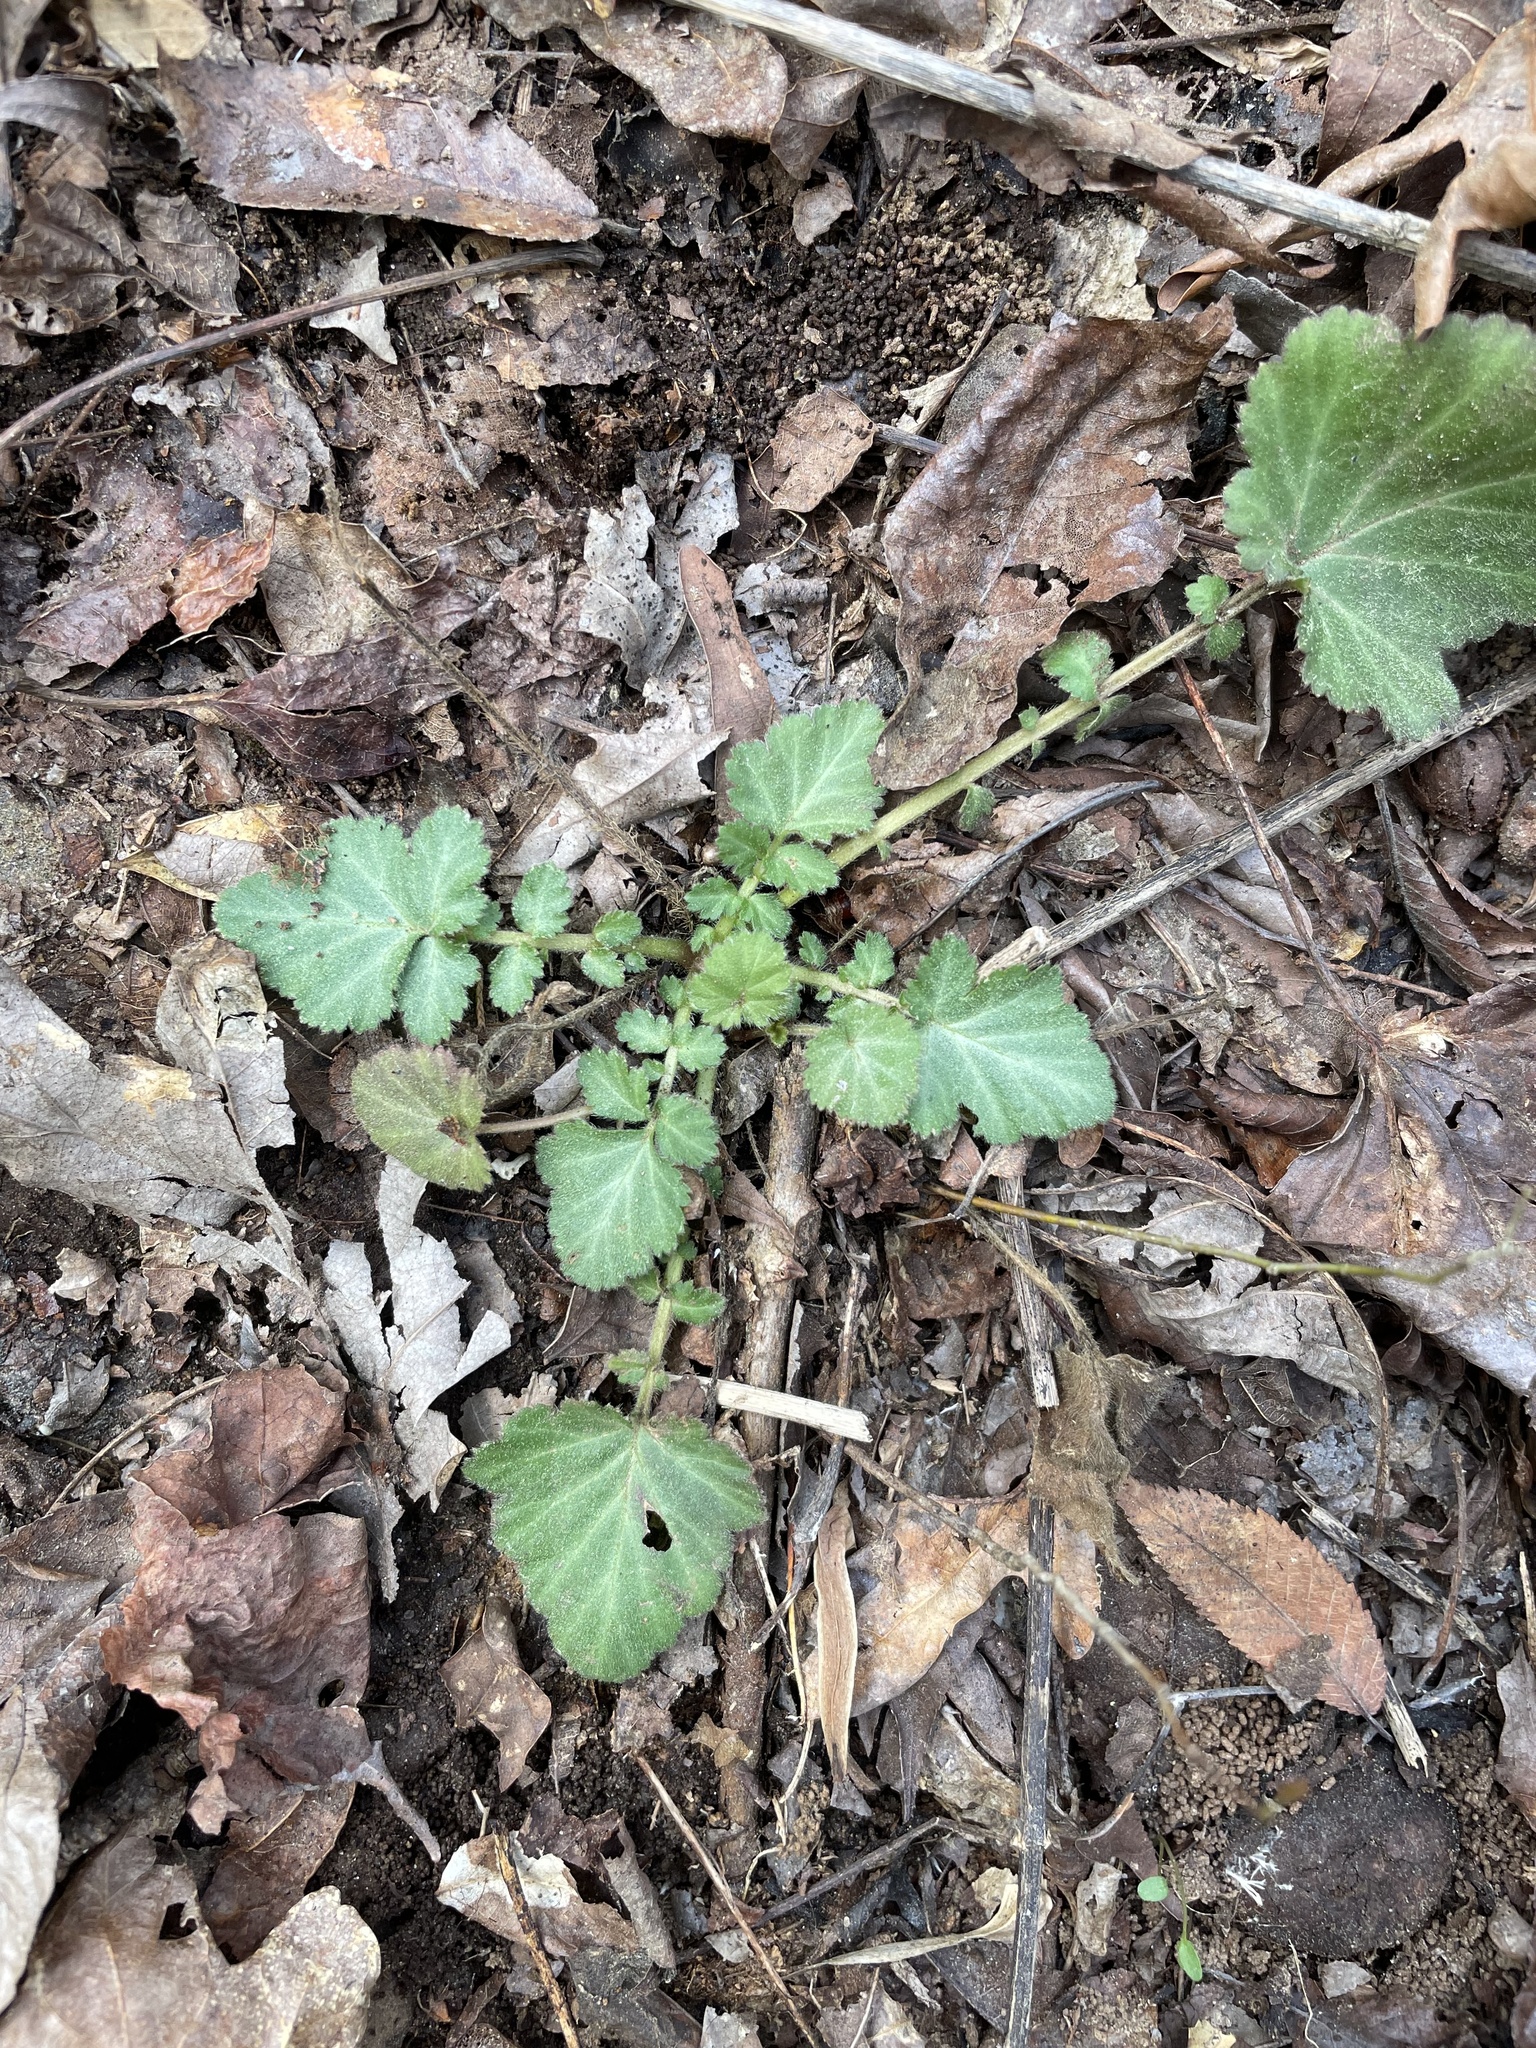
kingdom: Plantae
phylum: Tracheophyta
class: Magnoliopsida
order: Rosales
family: Rosaceae
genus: Geum
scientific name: Geum canadense
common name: White avens
